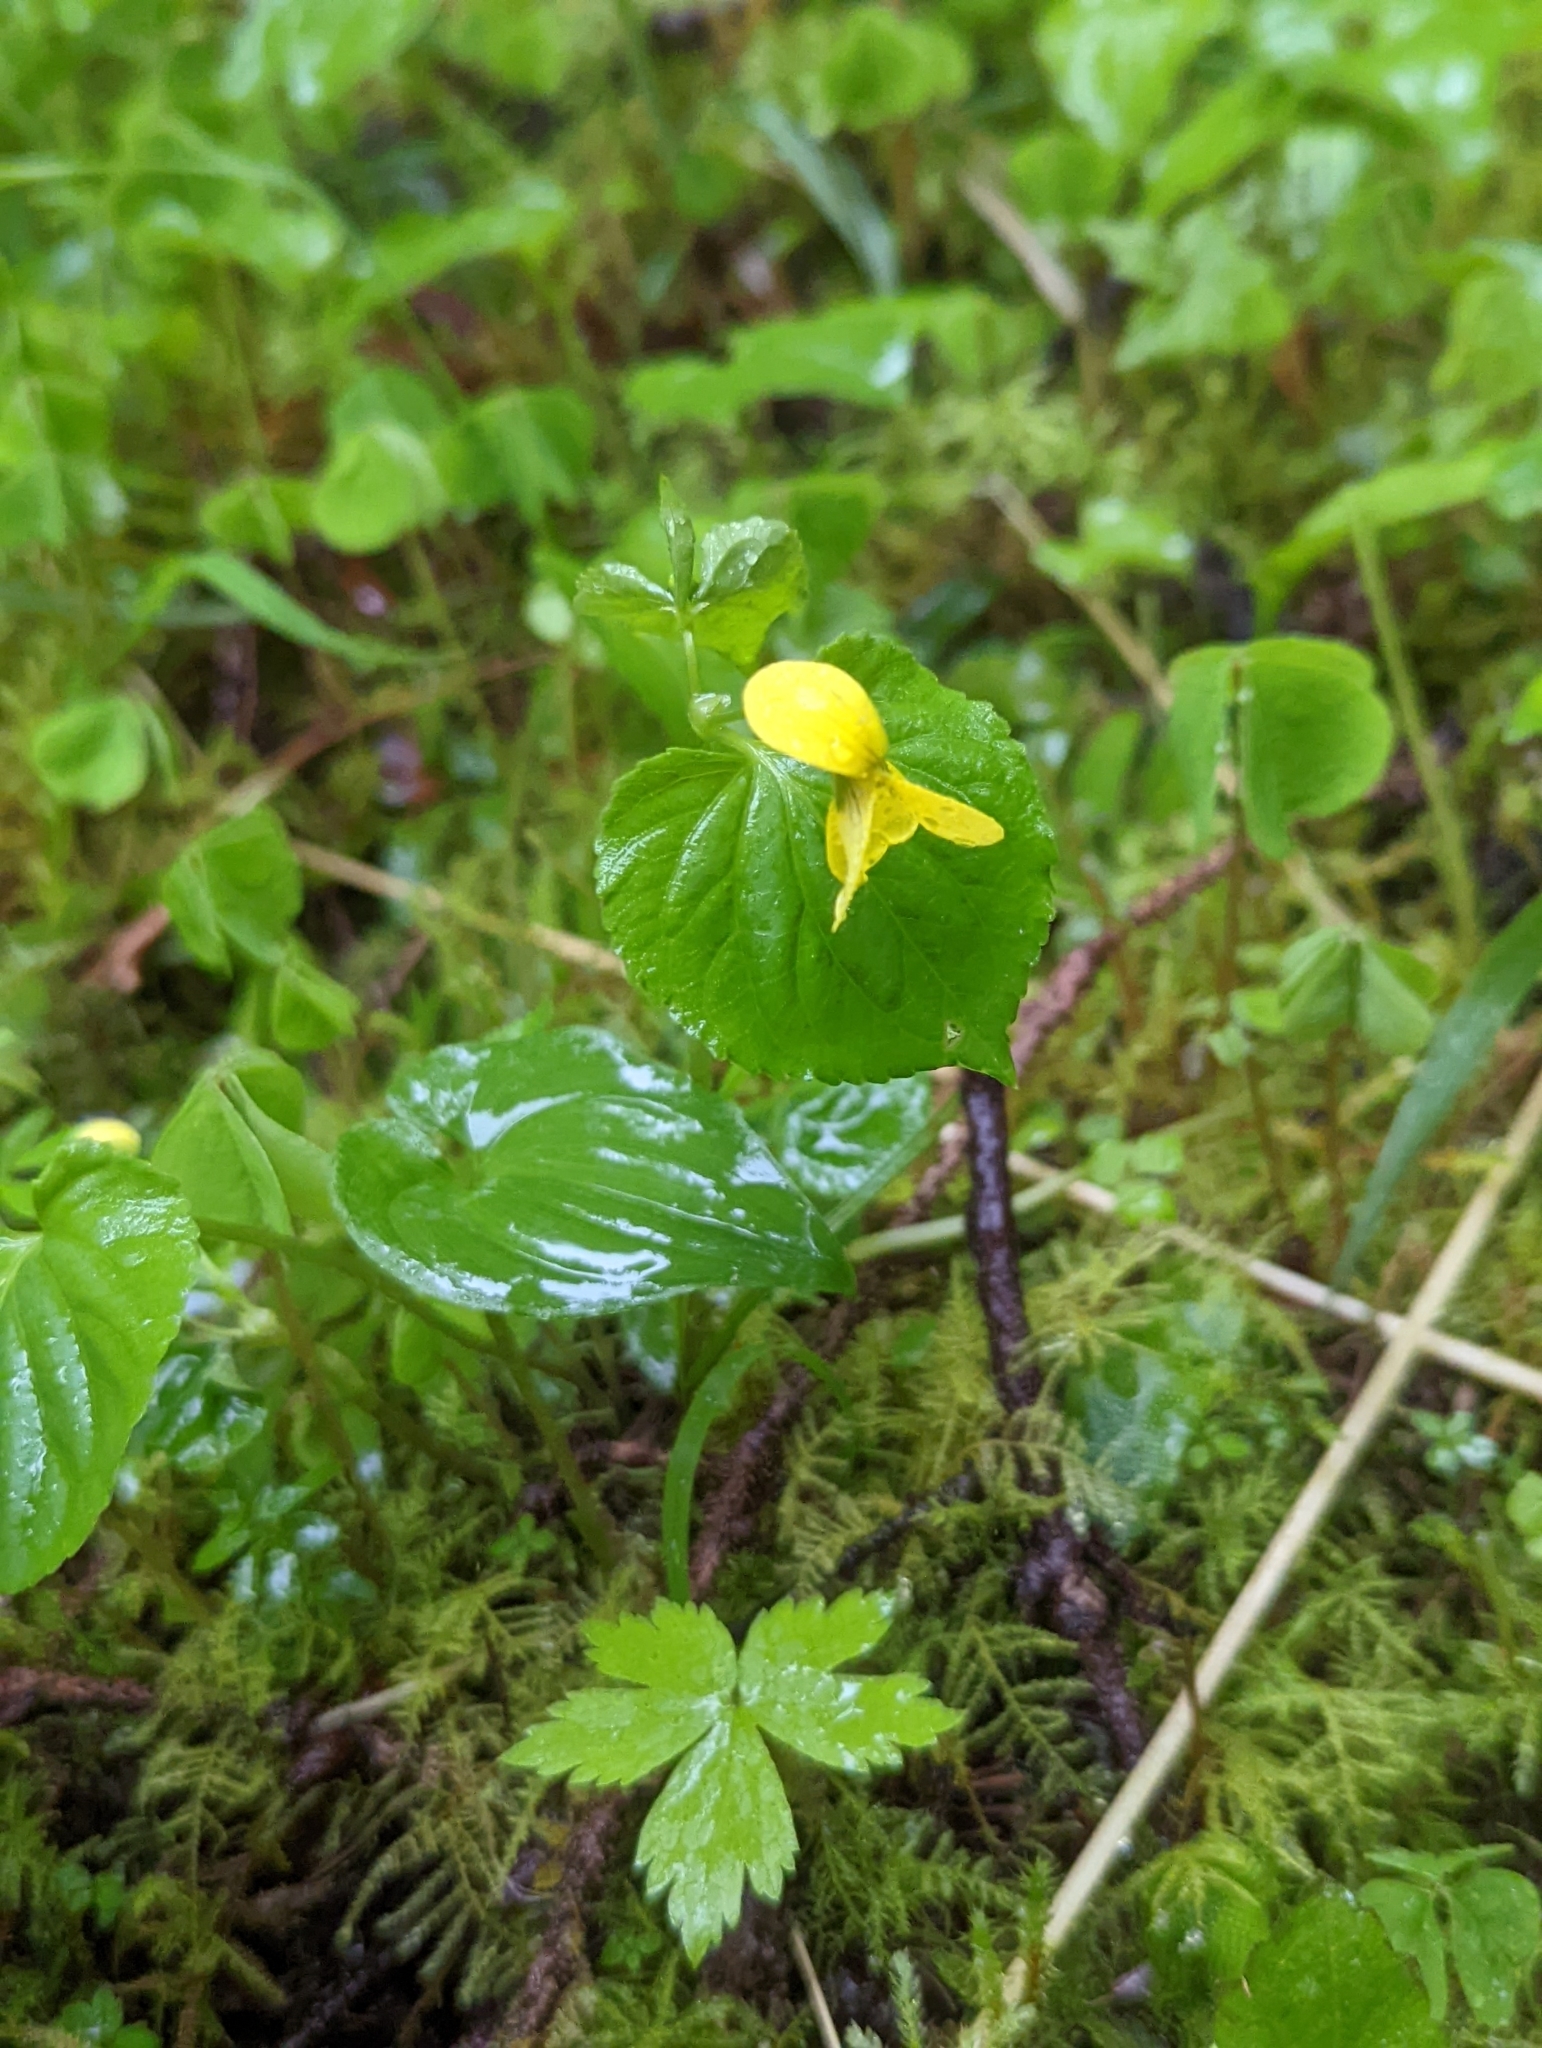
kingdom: Plantae
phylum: Tracheophyta
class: Magnoliopsida
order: Malpighiales
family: Violaceae
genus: Viola
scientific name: Viola glabella
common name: Stream violet
